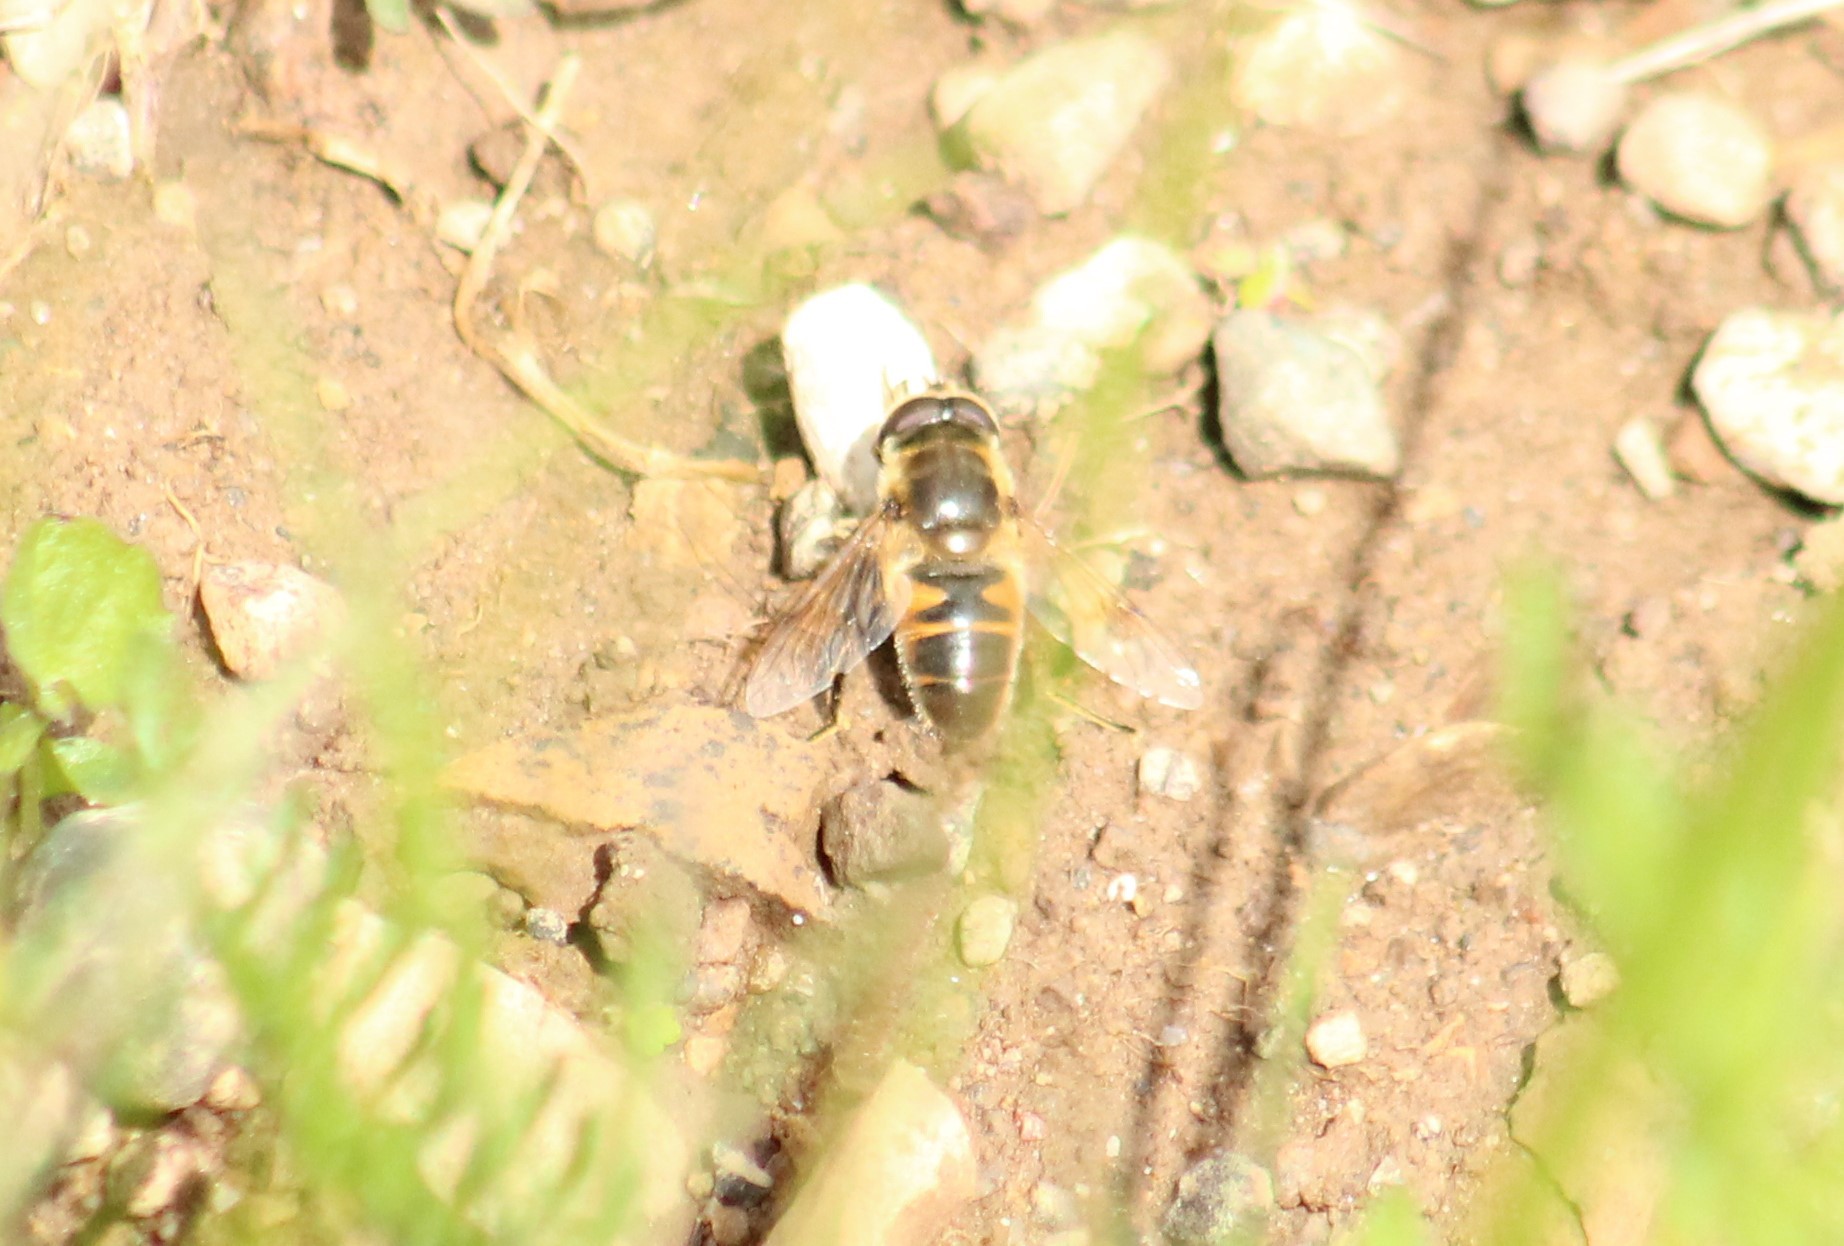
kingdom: Animalia
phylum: Arthropoda
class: Insecta
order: Diptera
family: Syrphidae
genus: Eristalis
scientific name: Eristalis tenax
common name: Drone fly
